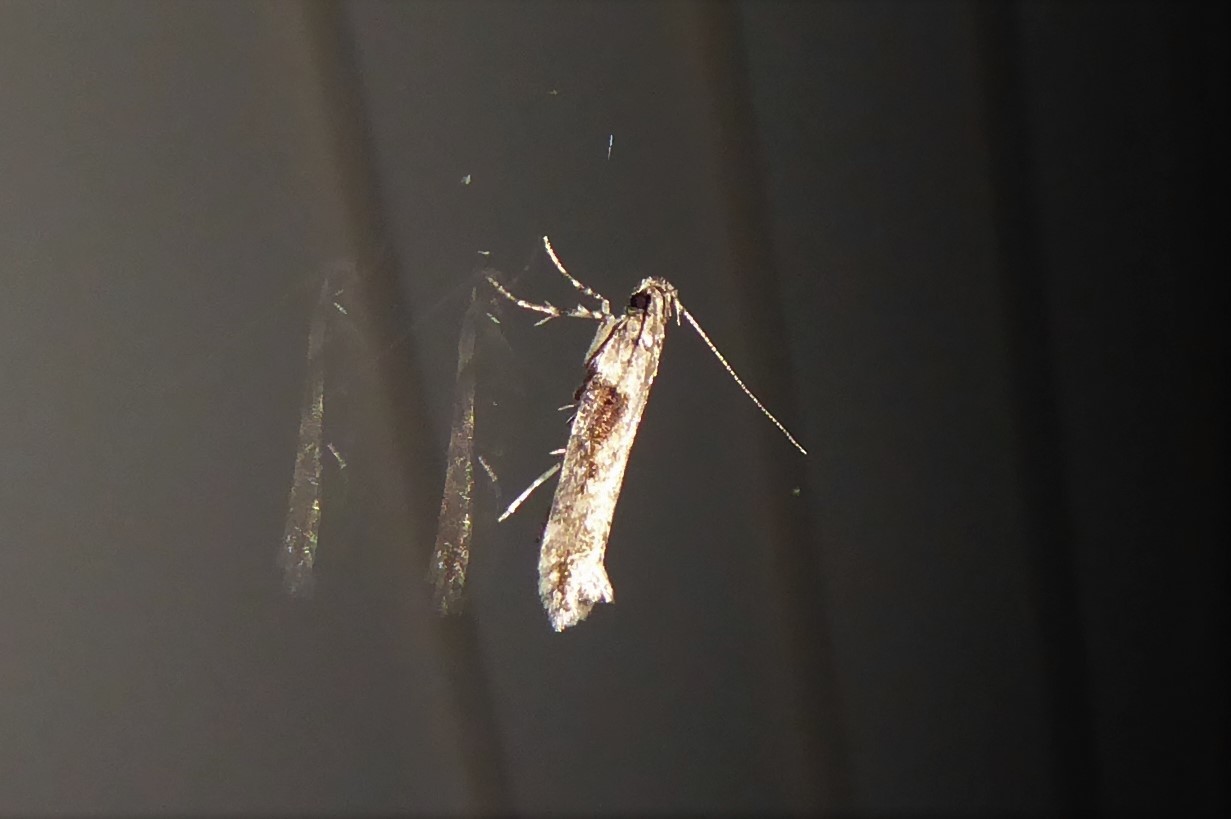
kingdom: Animalia
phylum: Arthropoda
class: Insecta
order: Lepidoptera
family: Gelechiidae
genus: Symmetrischema
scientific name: Symmetrischema tangolias
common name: Moth
